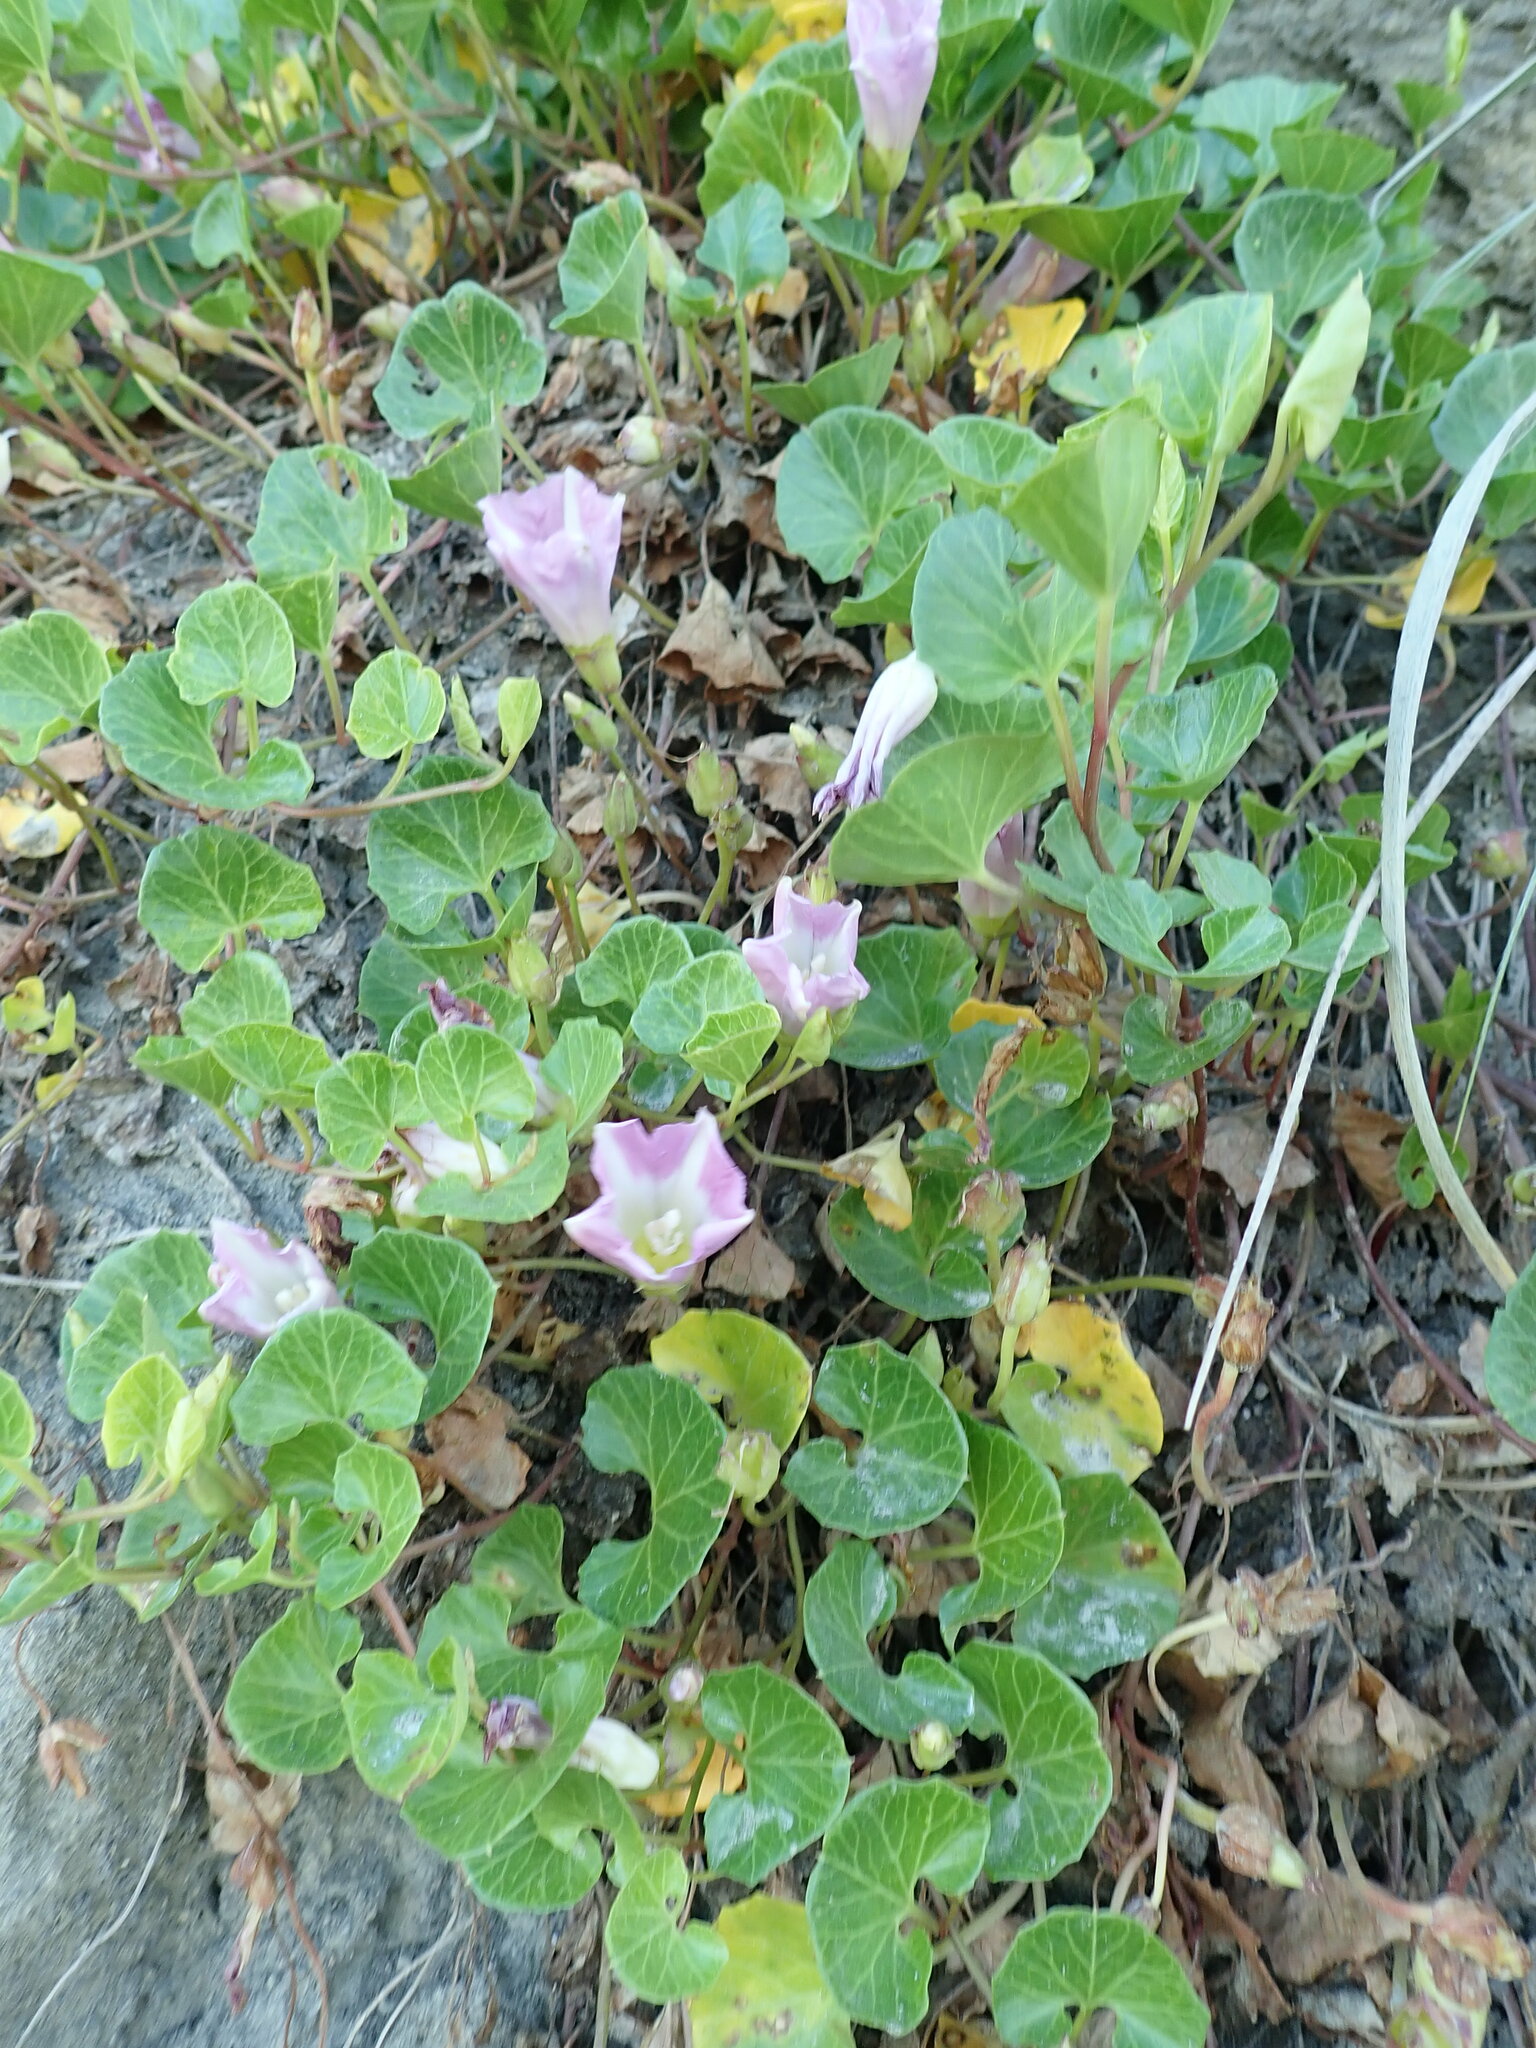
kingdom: Plantae
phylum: Tracheophyta
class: Magnoliopsida
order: Solanales
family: Convolvulaceae
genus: Calystegia
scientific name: Calystegia soldanella
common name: Sea bindweed
